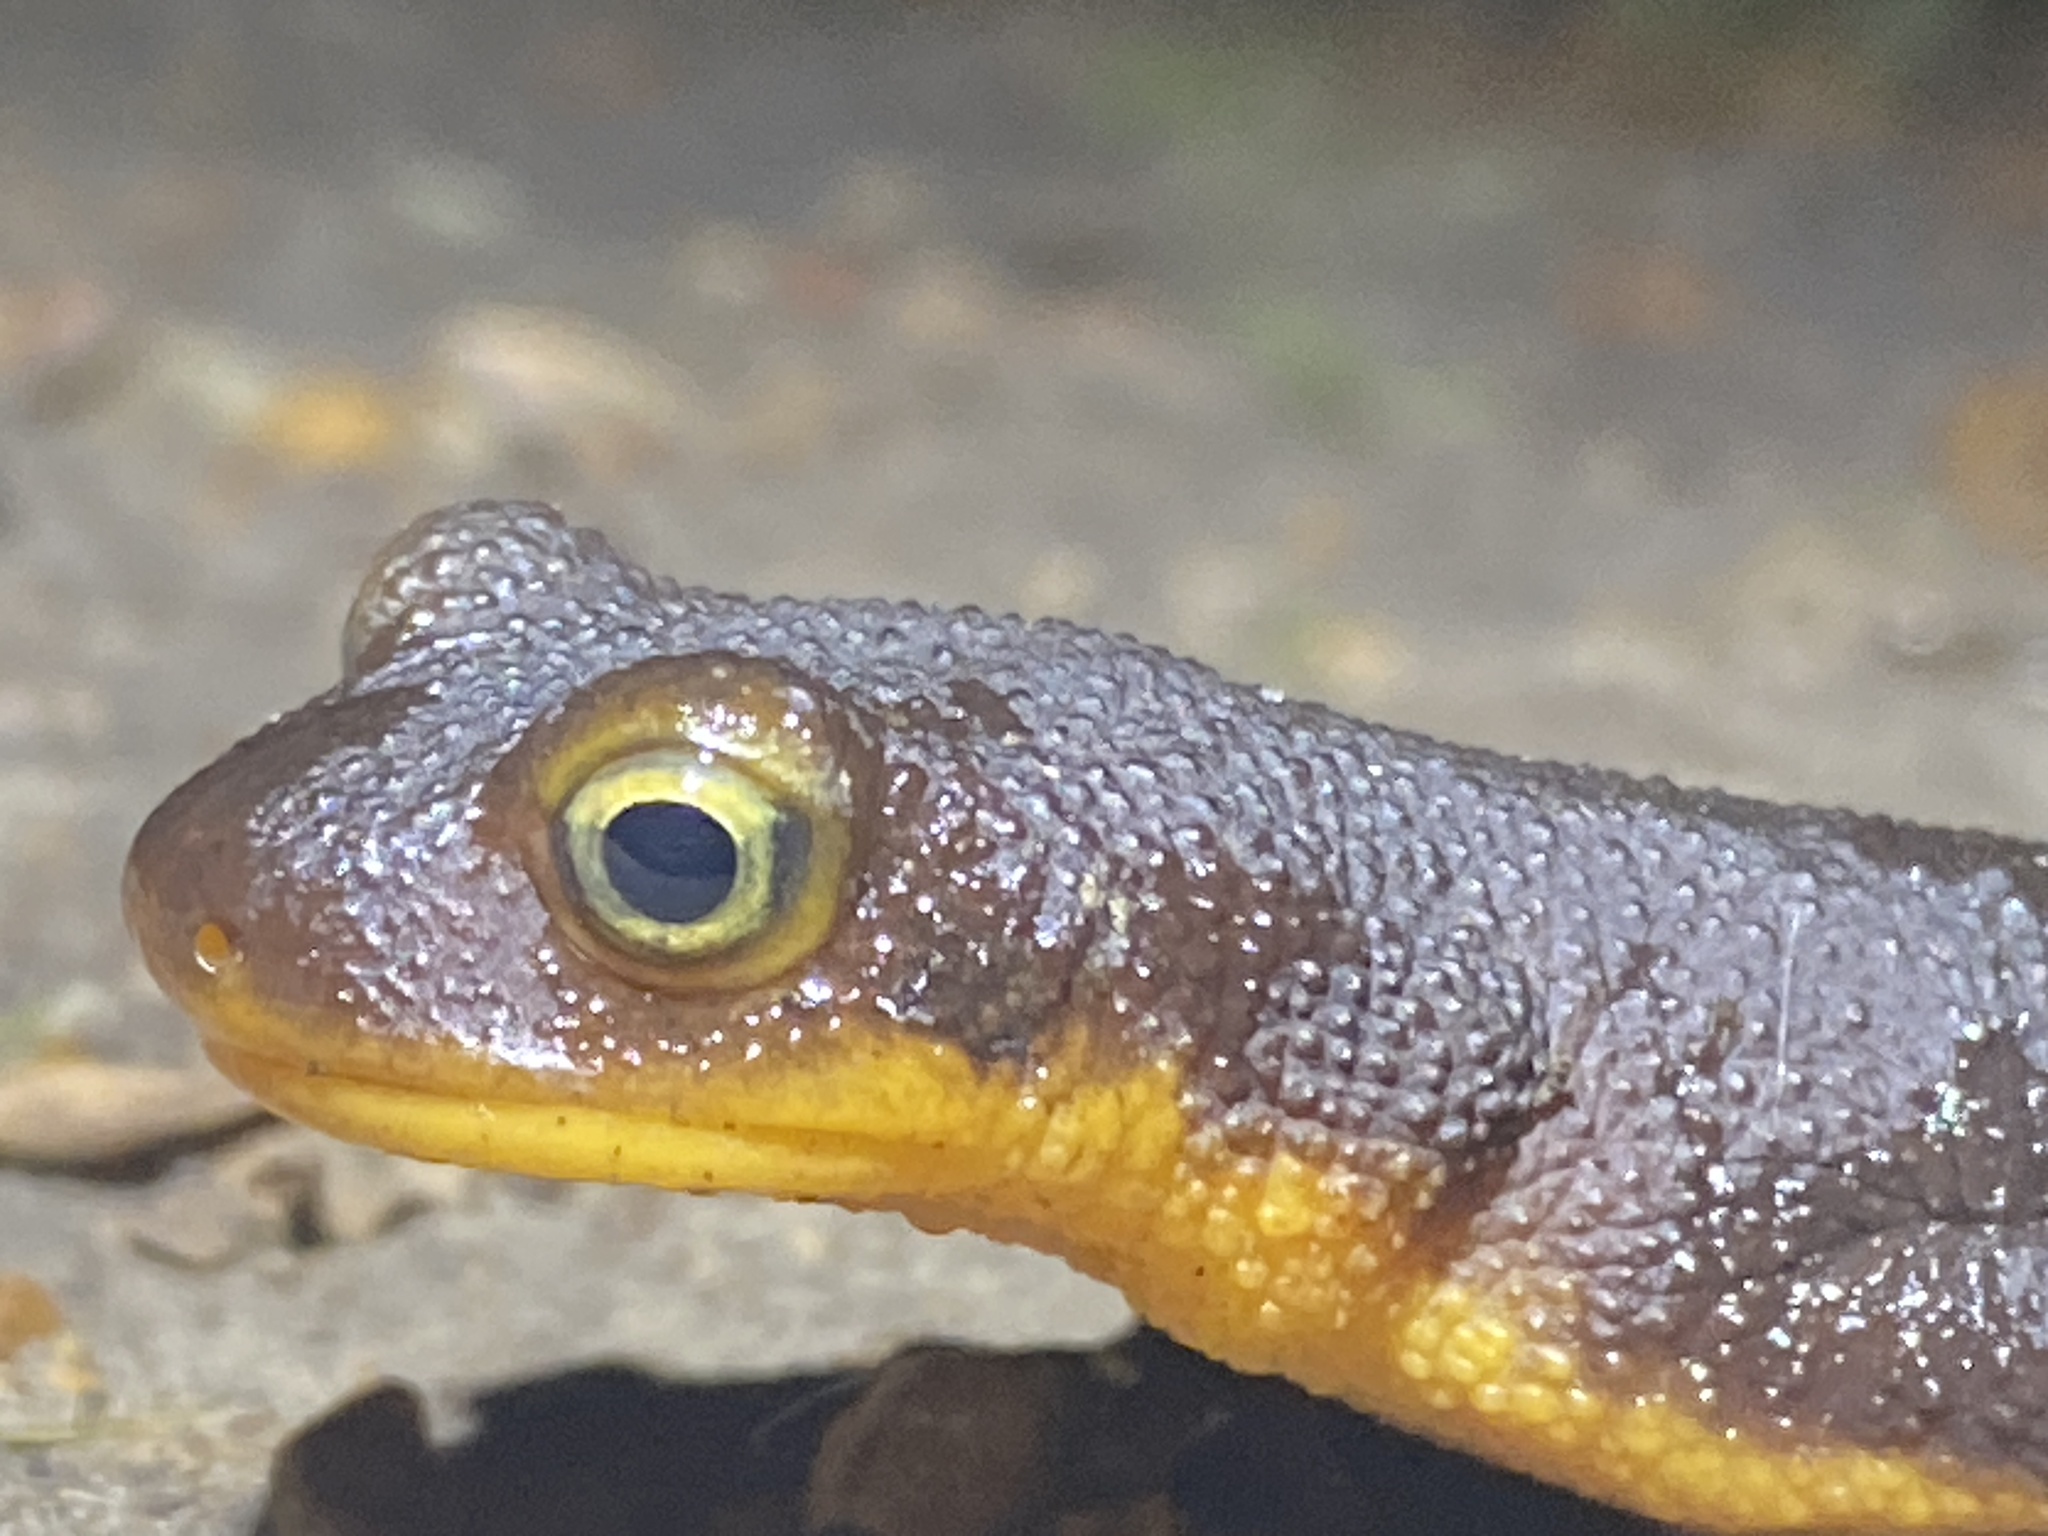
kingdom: Animalia
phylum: Chordata
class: Amphibia
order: Caudata
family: Salamandridae
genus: Taricha
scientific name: Taricha torosa
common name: California newt
